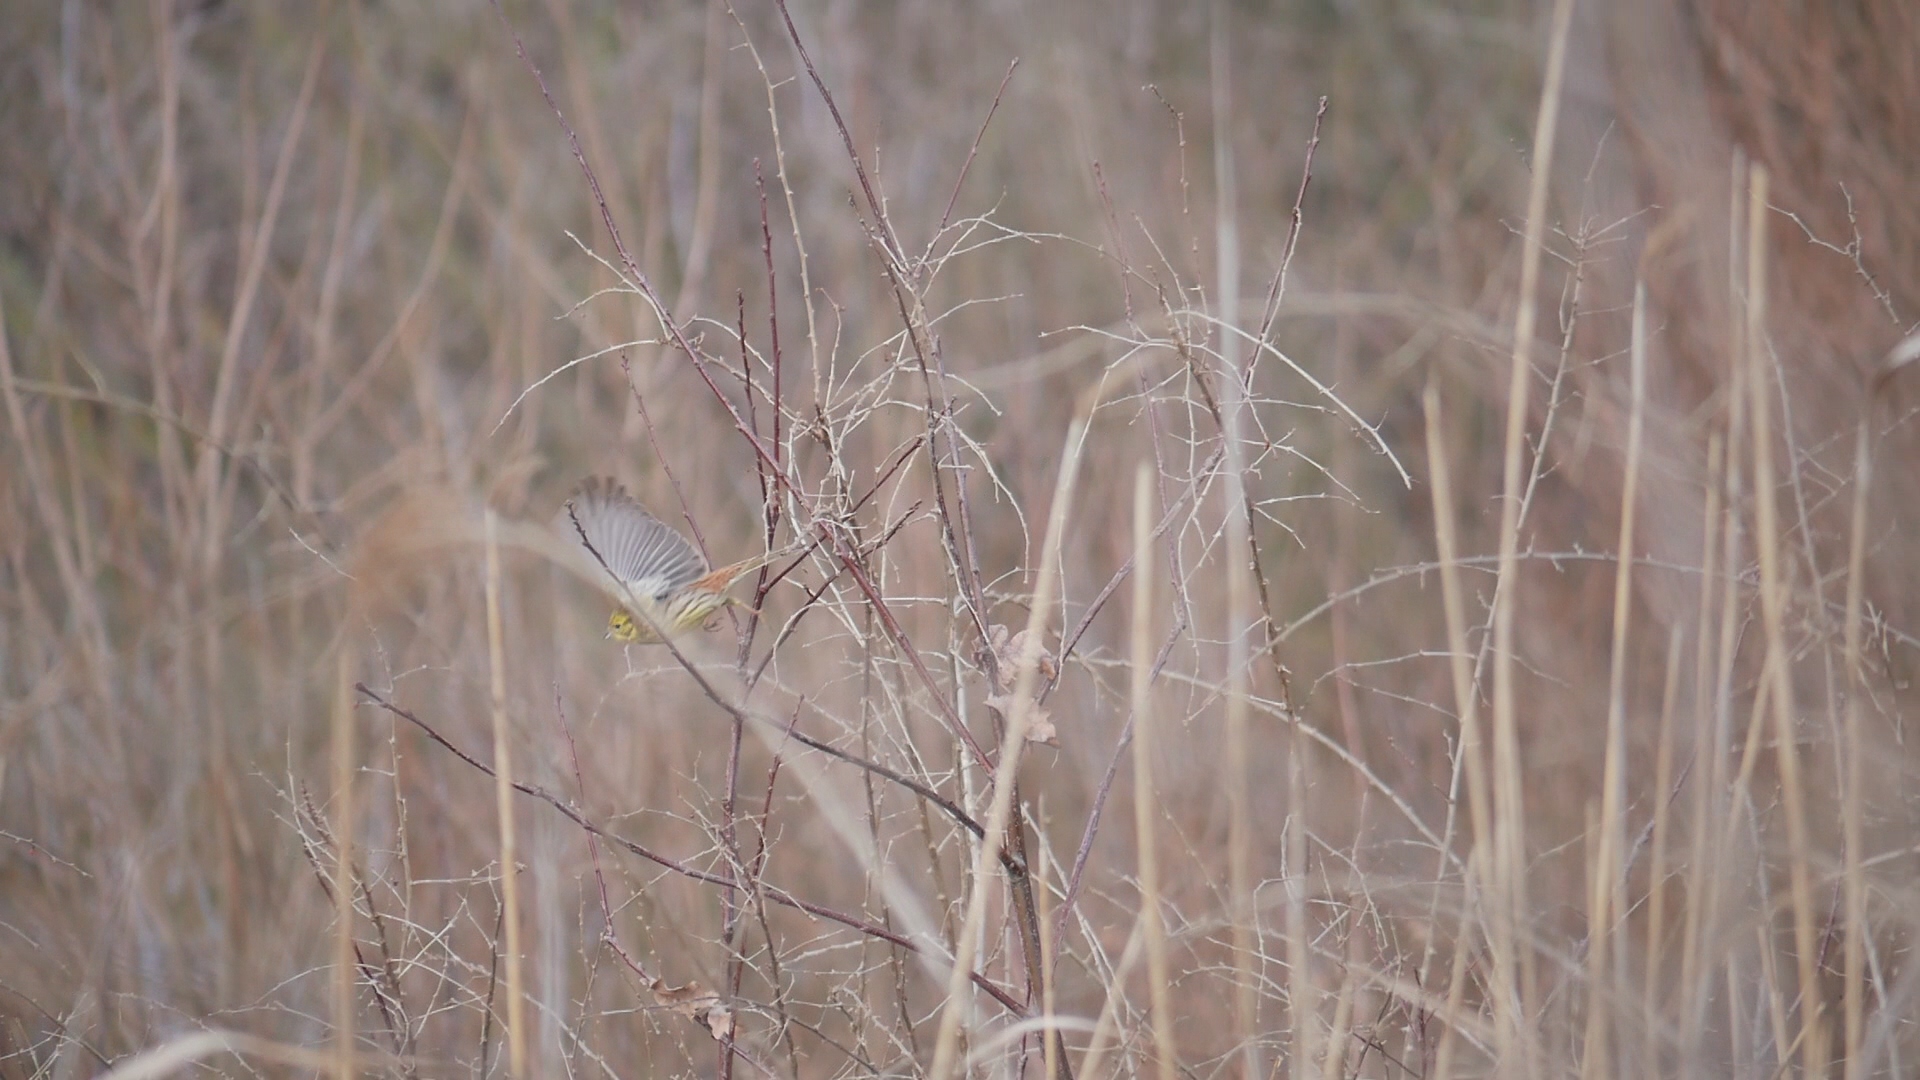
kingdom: Animalia
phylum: Chordata
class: Aves
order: Passeriformes
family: Emberizidae
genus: Emberiza
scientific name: Emberiza citrinella
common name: Yellowhammer
